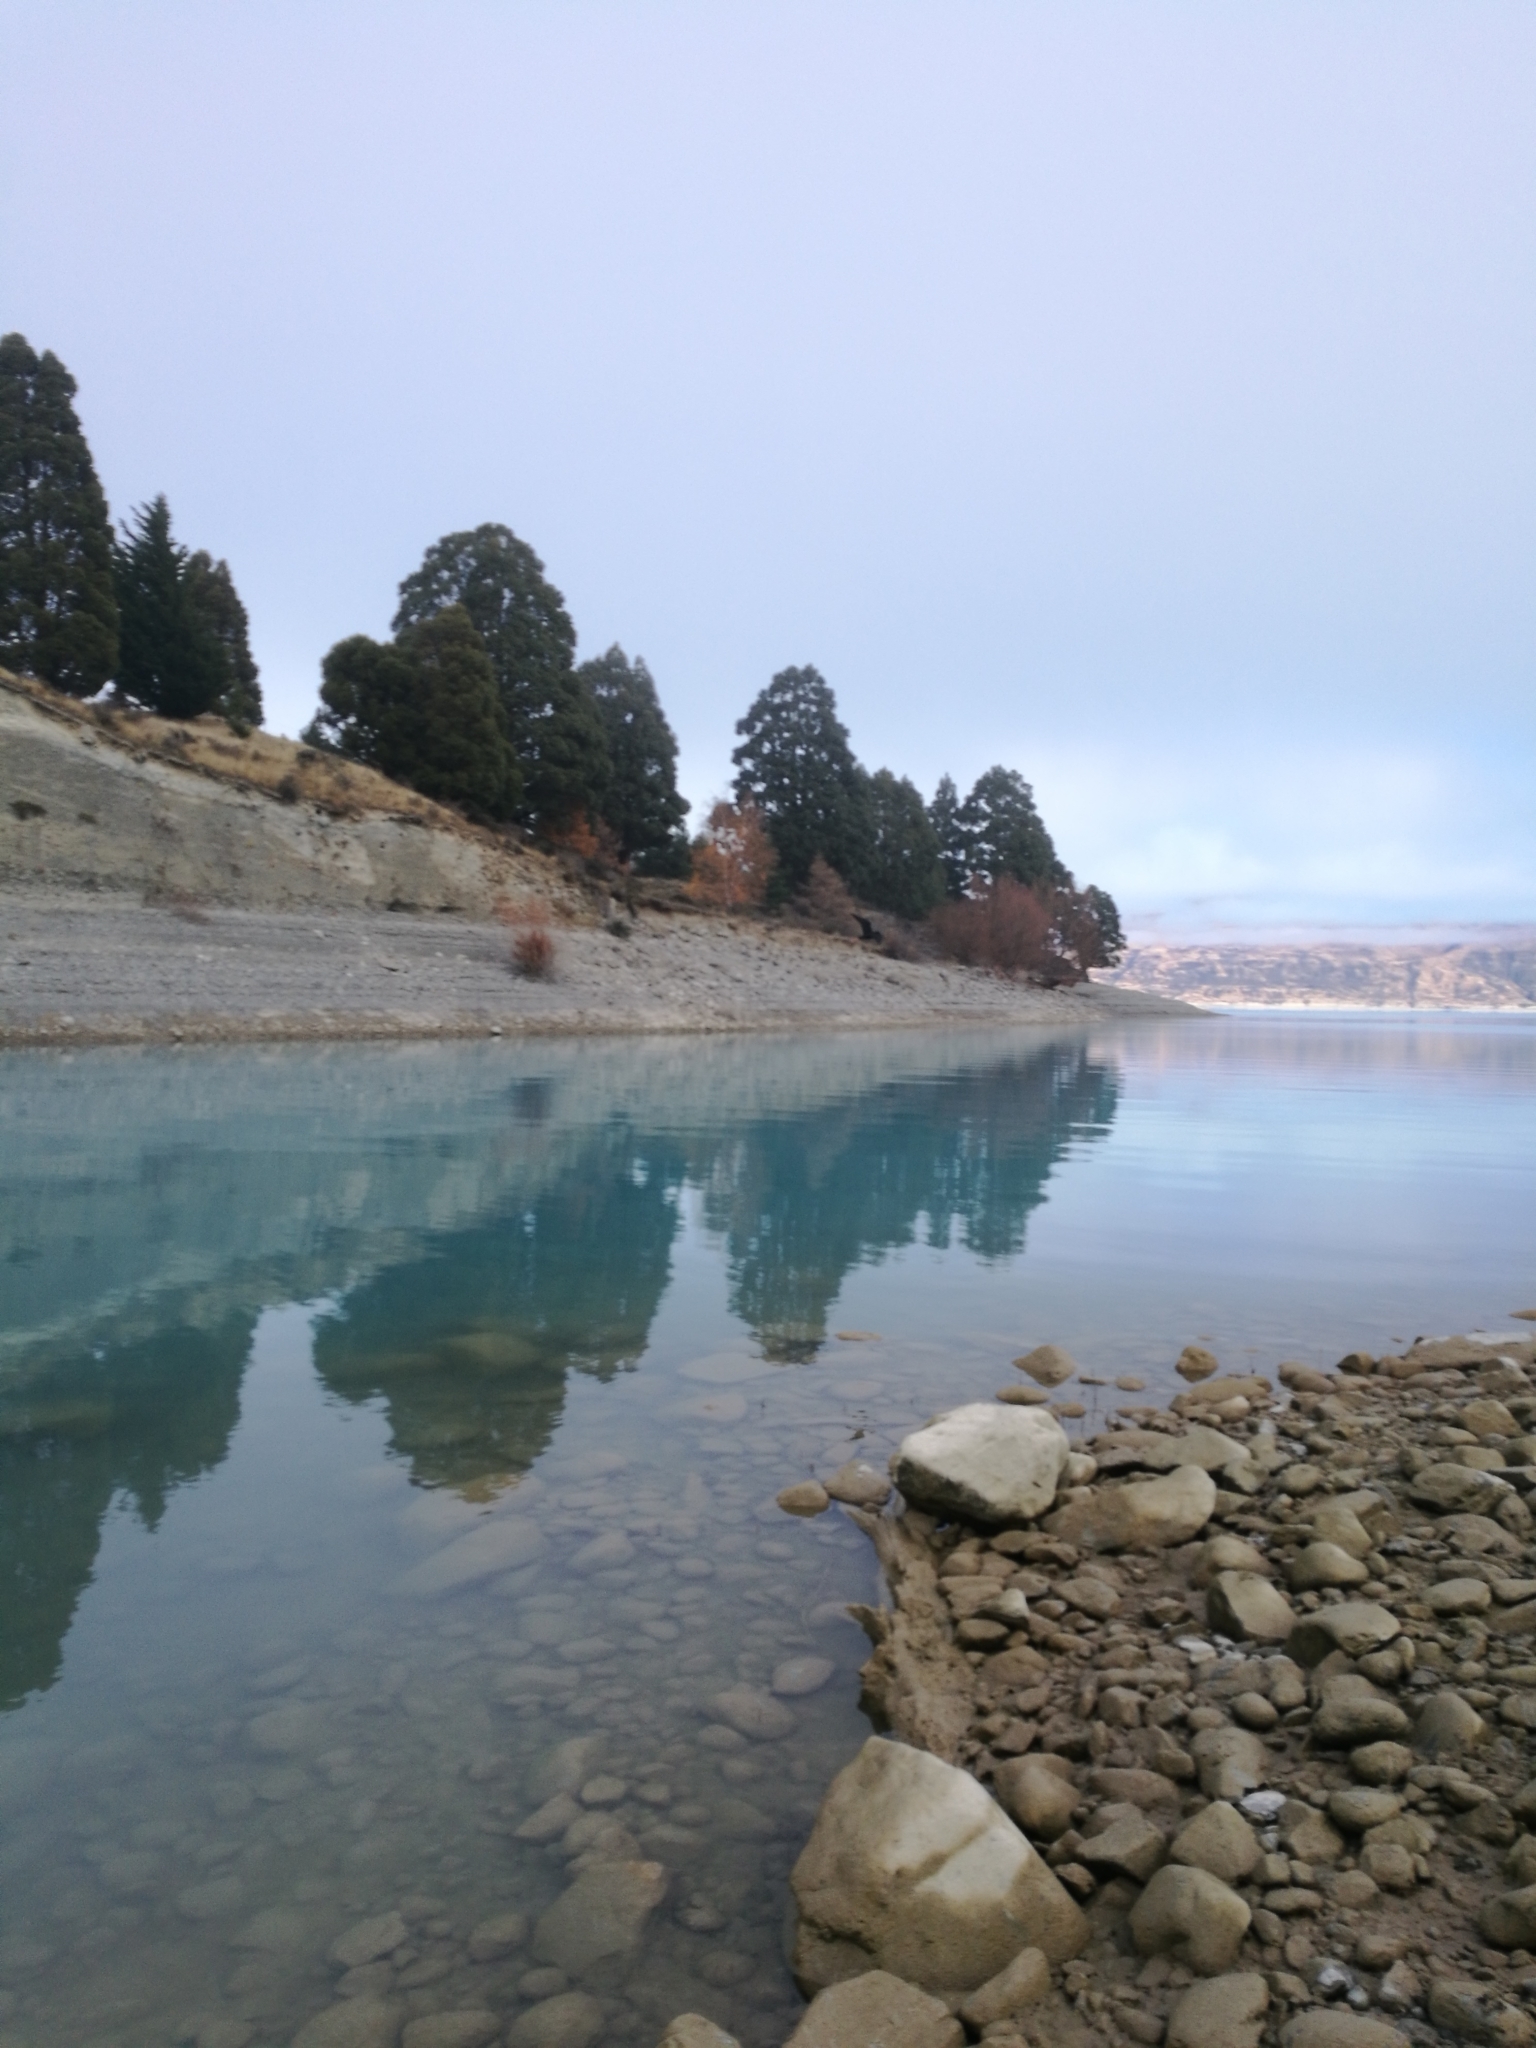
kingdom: Animalia
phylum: Chordata
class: Aves
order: Charadriiformes
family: Recurvirostridae
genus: Himantopus
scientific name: Himantopus novaezelandiae
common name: Black stilt
